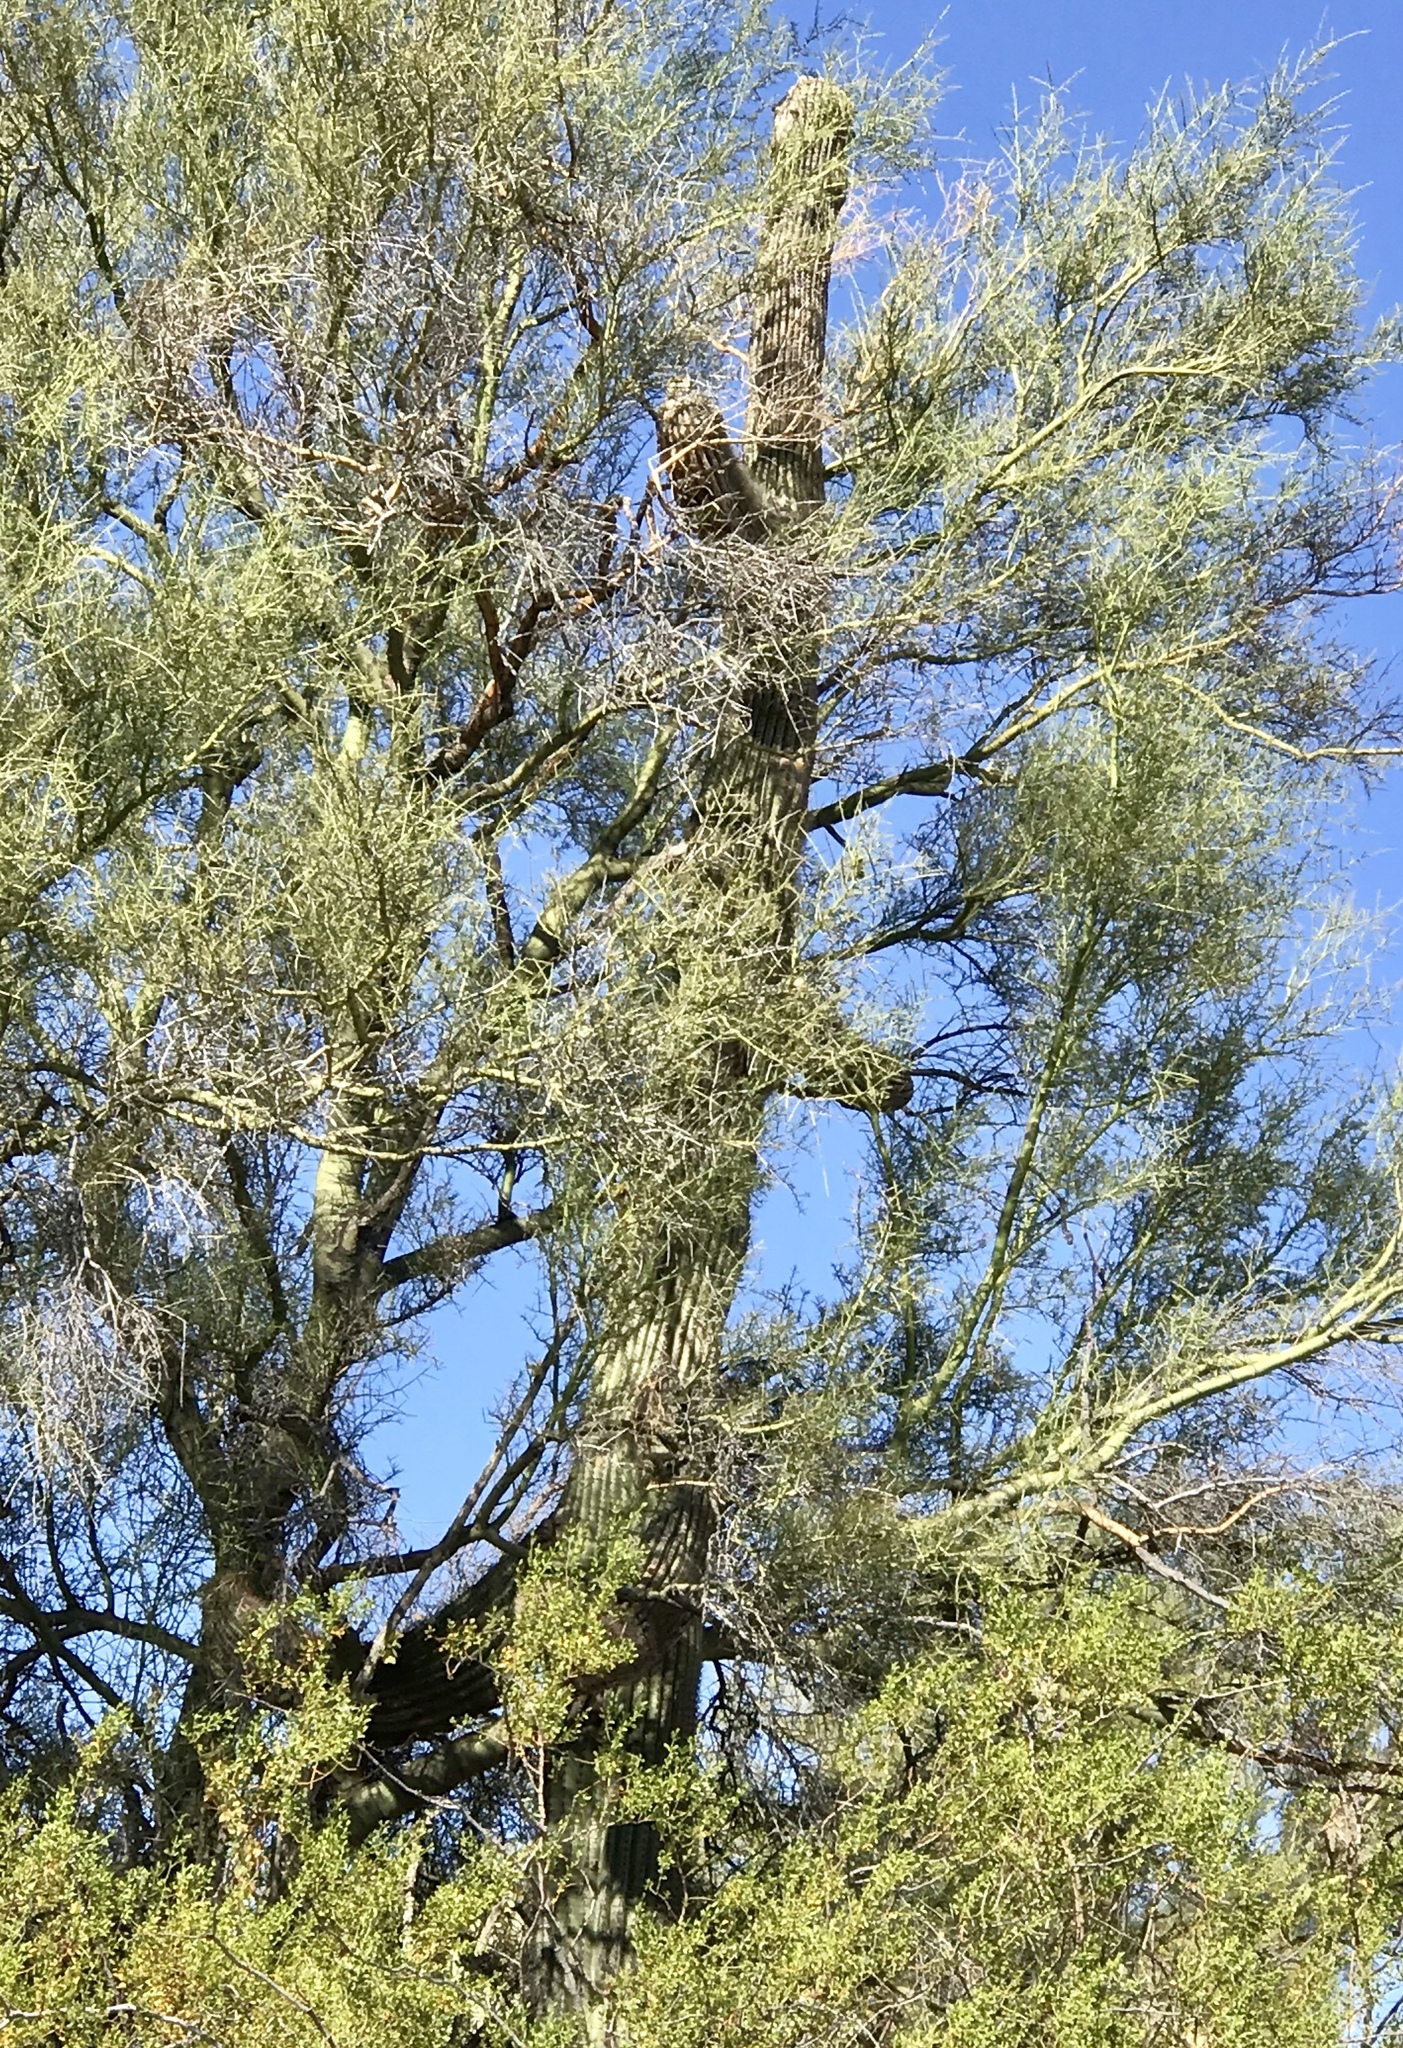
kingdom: Plantae
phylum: Tracheophyta
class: Magnoliopsida
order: Caryophyllales
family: Cactaceae
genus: Carnegiea
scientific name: Carnegiea gigantea
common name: Saguaro
